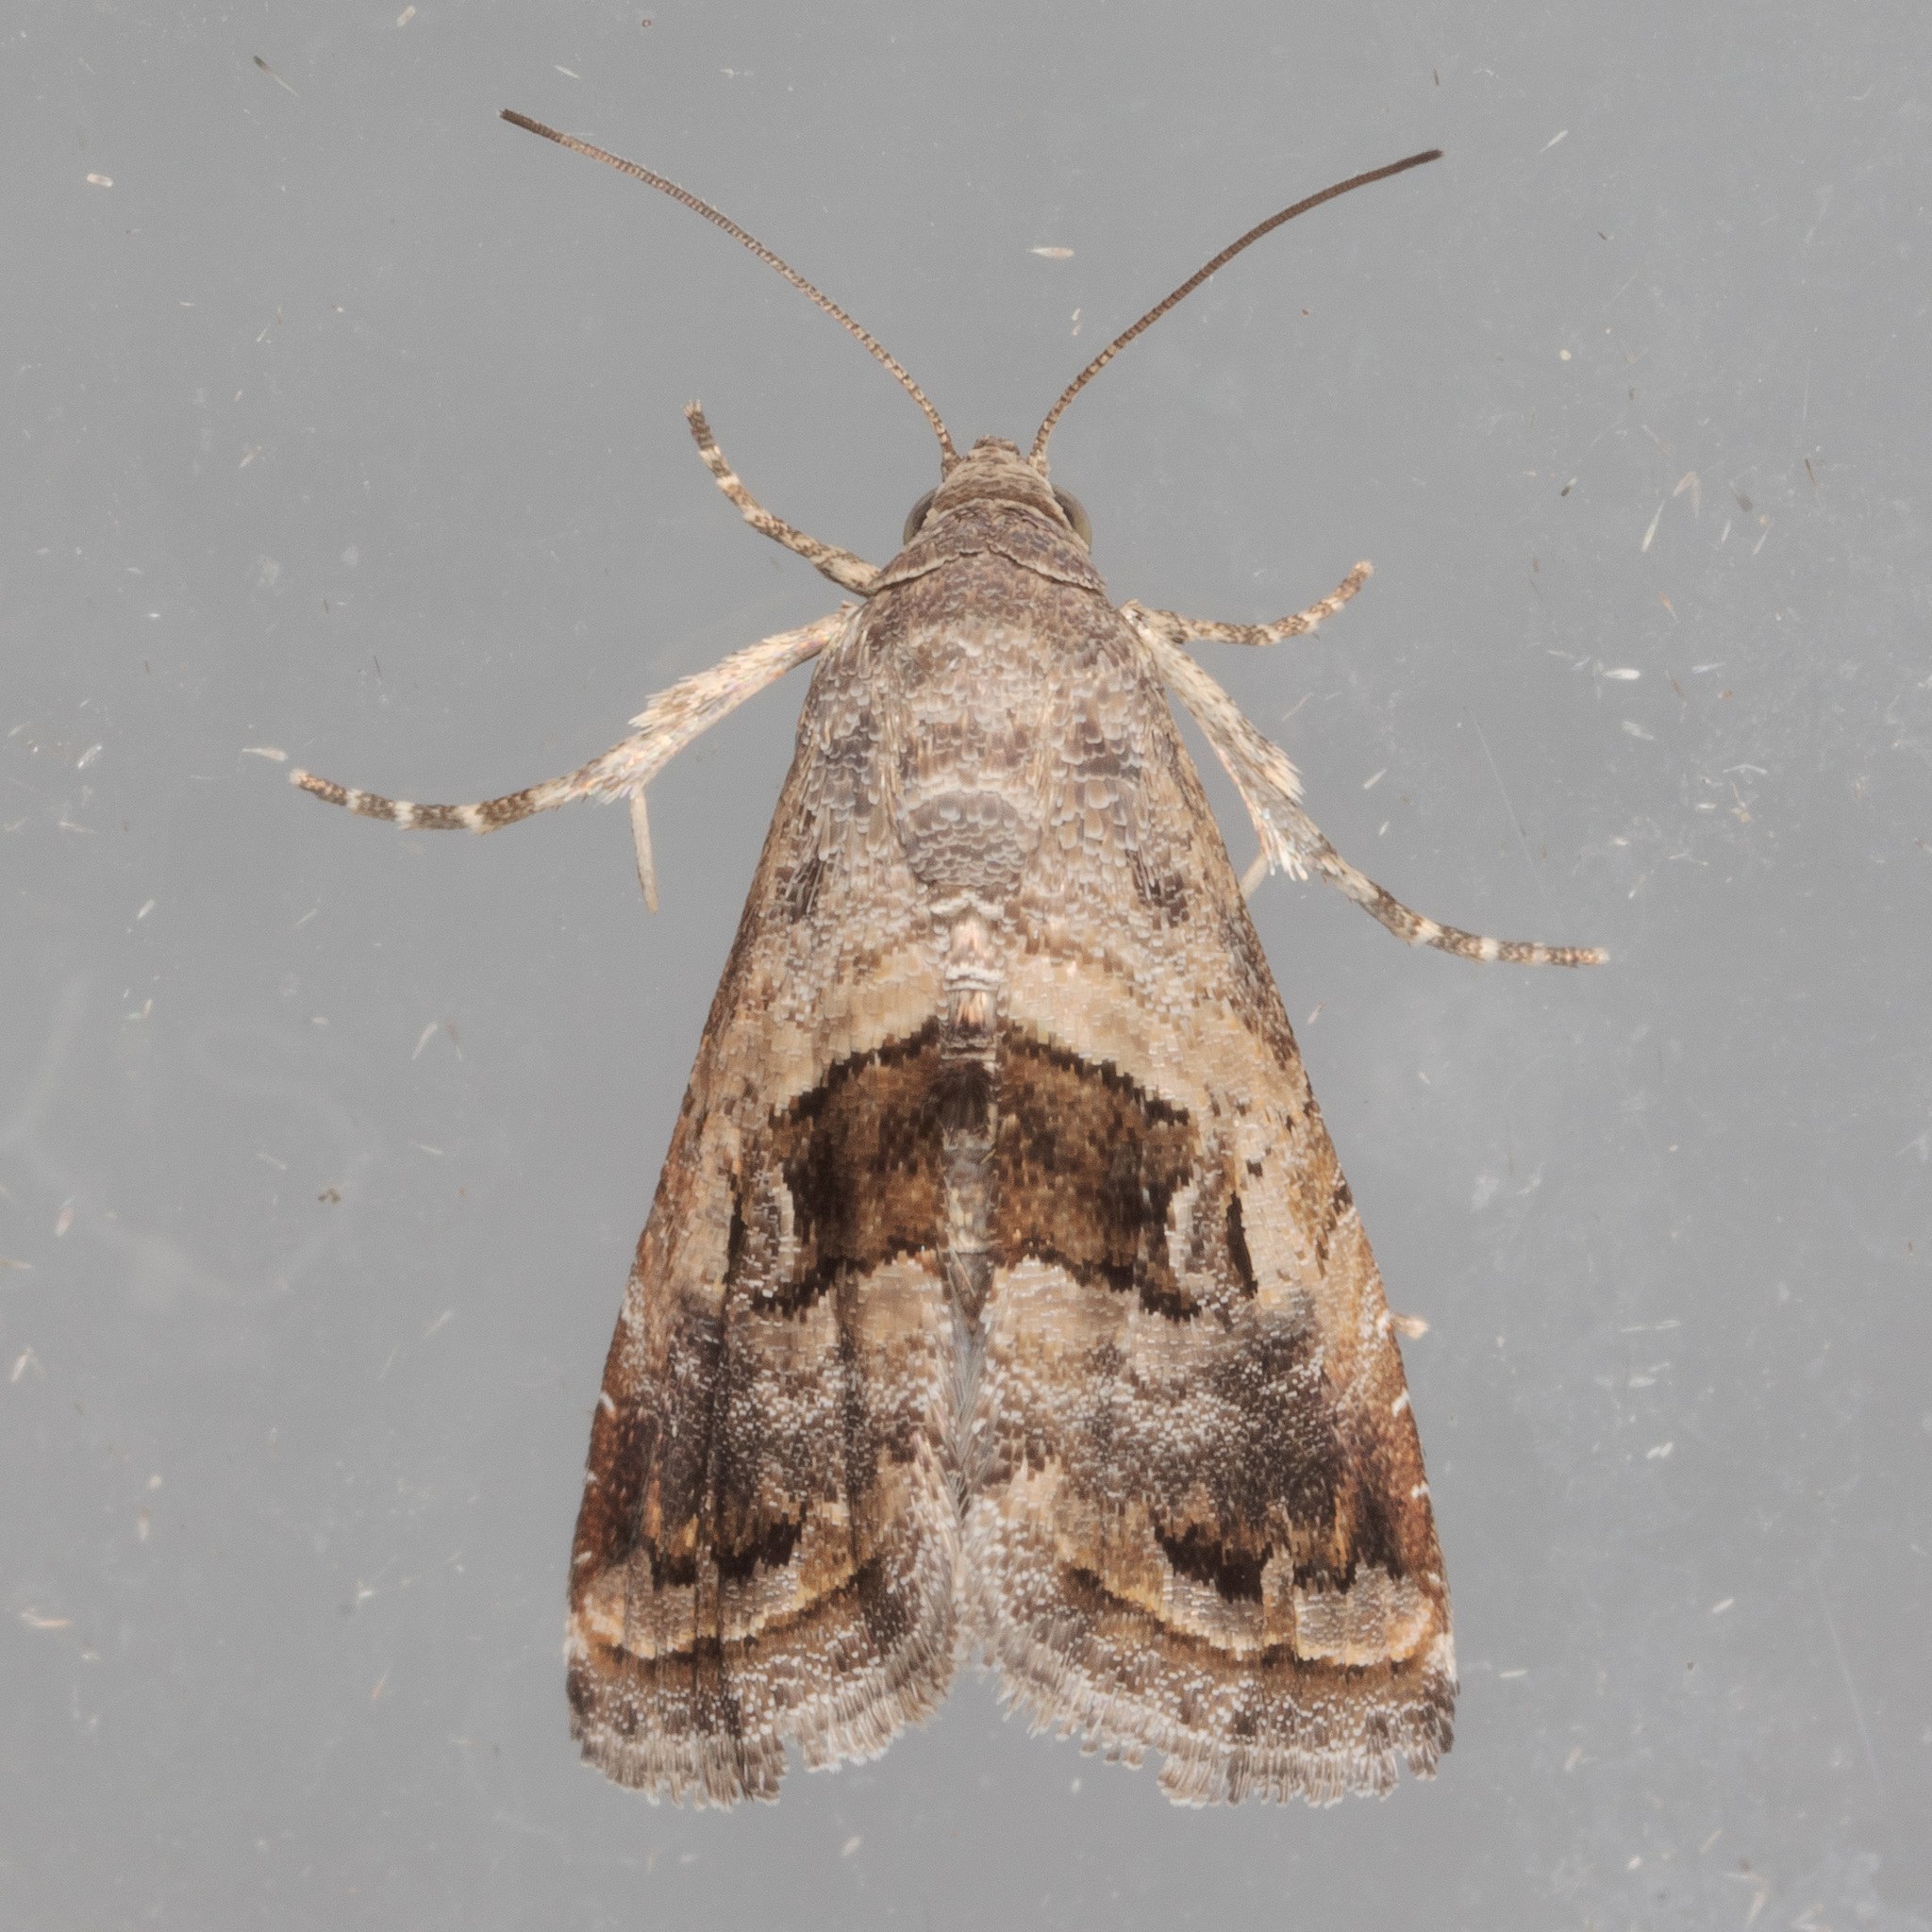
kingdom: Animalia
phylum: Arthropoda
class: Insecta
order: Lepidoptera
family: Noctuidae
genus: Tripudia
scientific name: Tripudia quadrifera
